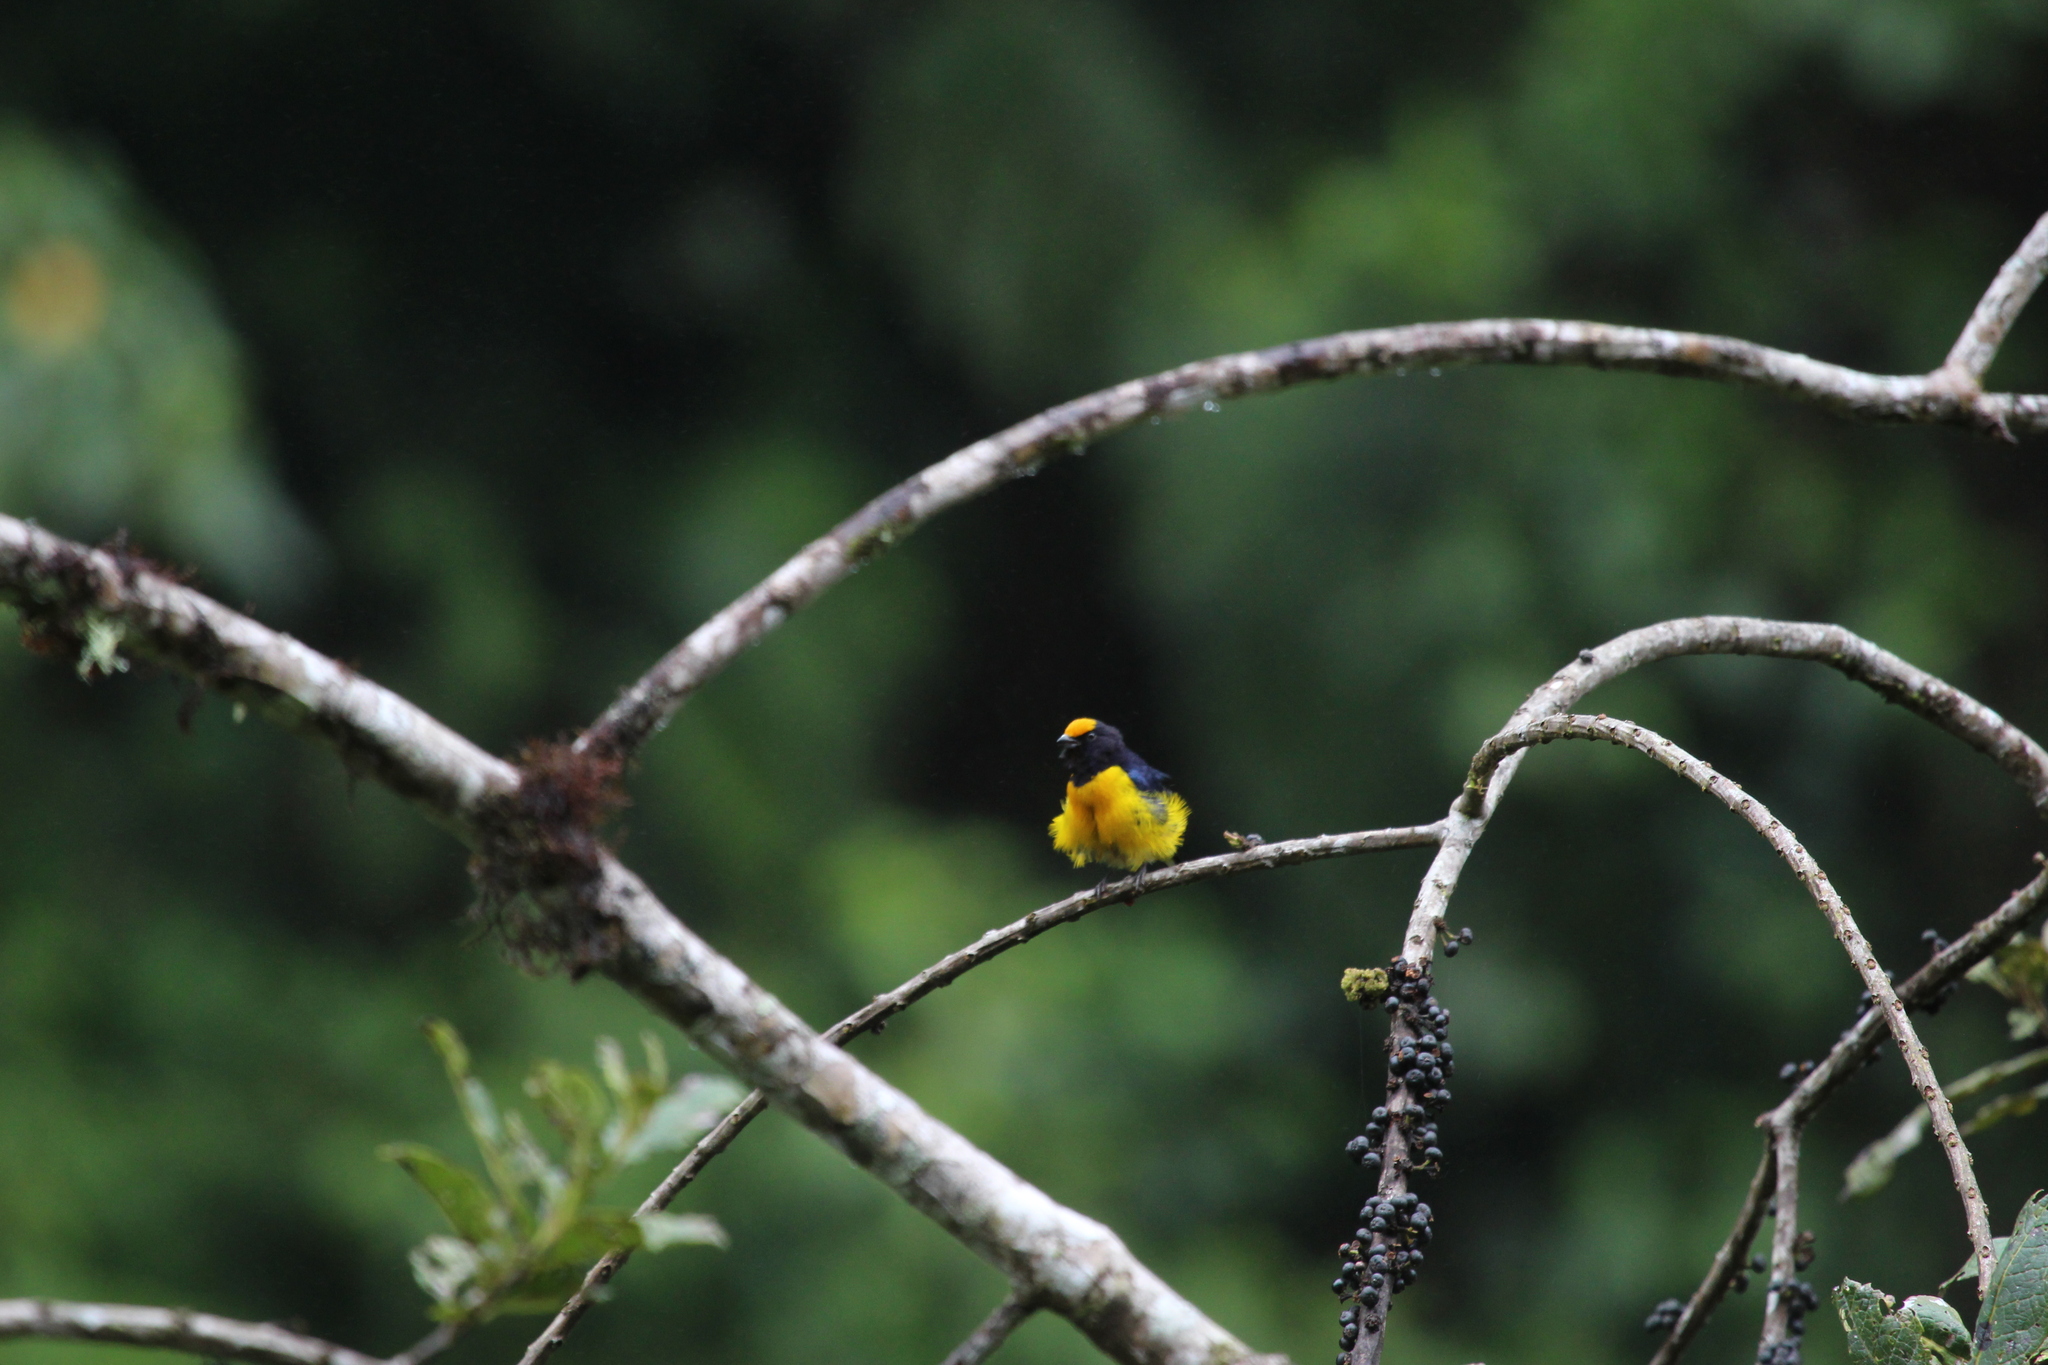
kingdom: Animalia
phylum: Chordata
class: Aves
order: Passeriformes
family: Fringillidae
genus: Euphonia
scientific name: Euphonia xanthogaster
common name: Orange-bellied euphonia
